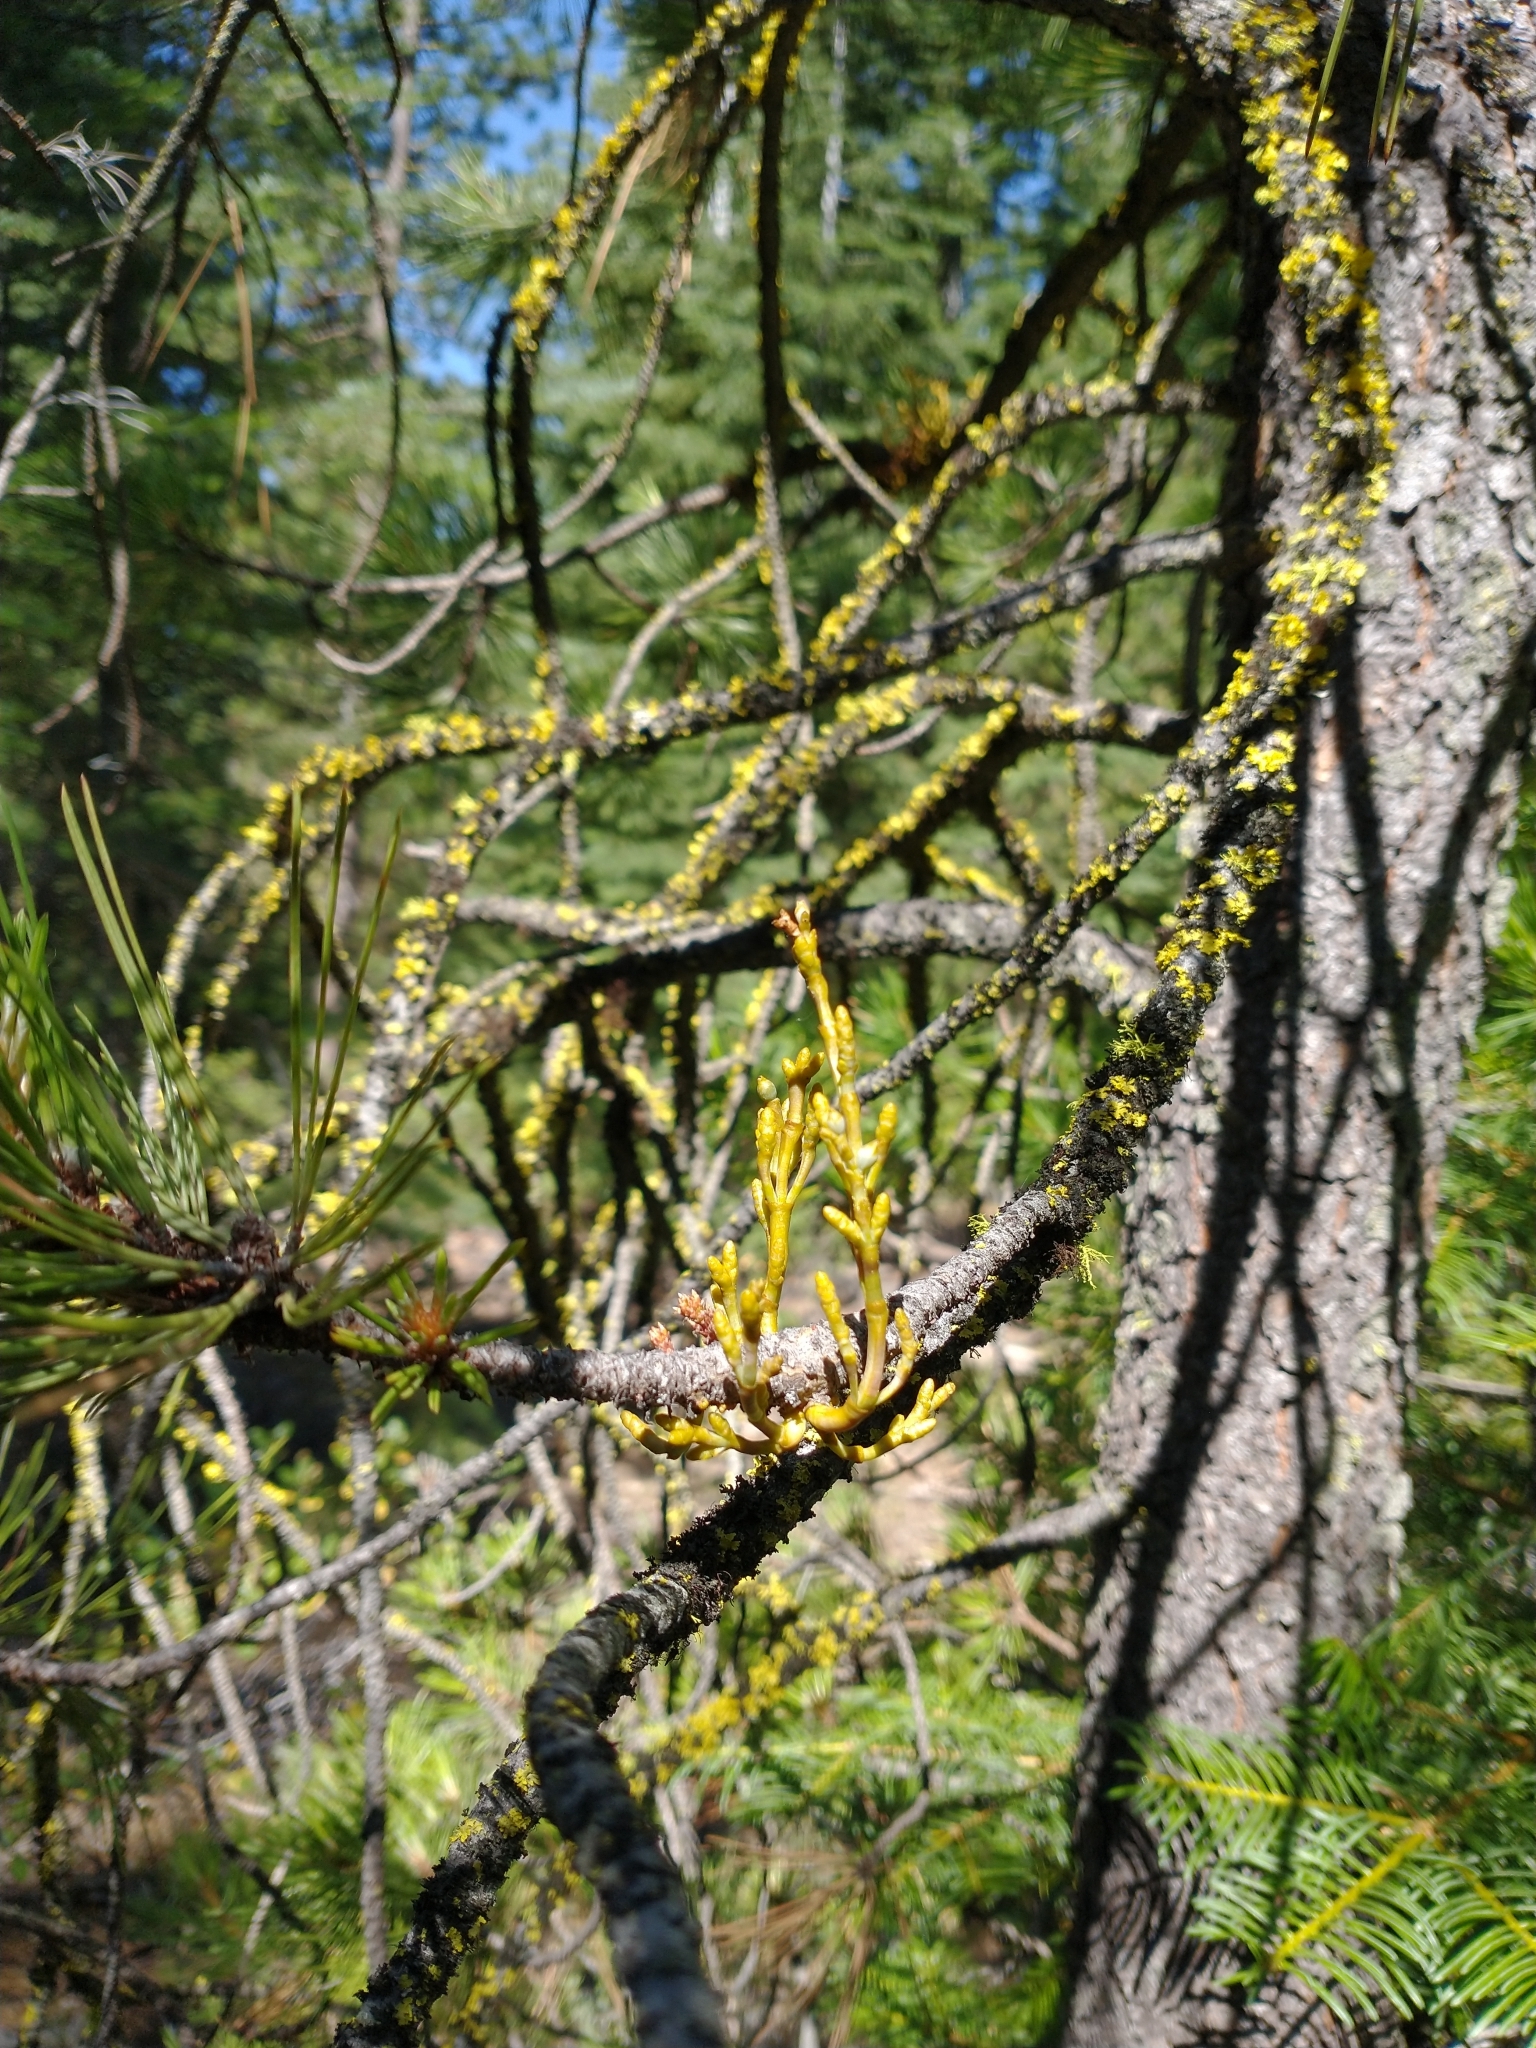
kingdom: Plantae
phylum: Tracheophyta
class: Magnoliopsida
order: Santalales
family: Viscaceae
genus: Arceuthobium
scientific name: Arceuthobium campylopodum
